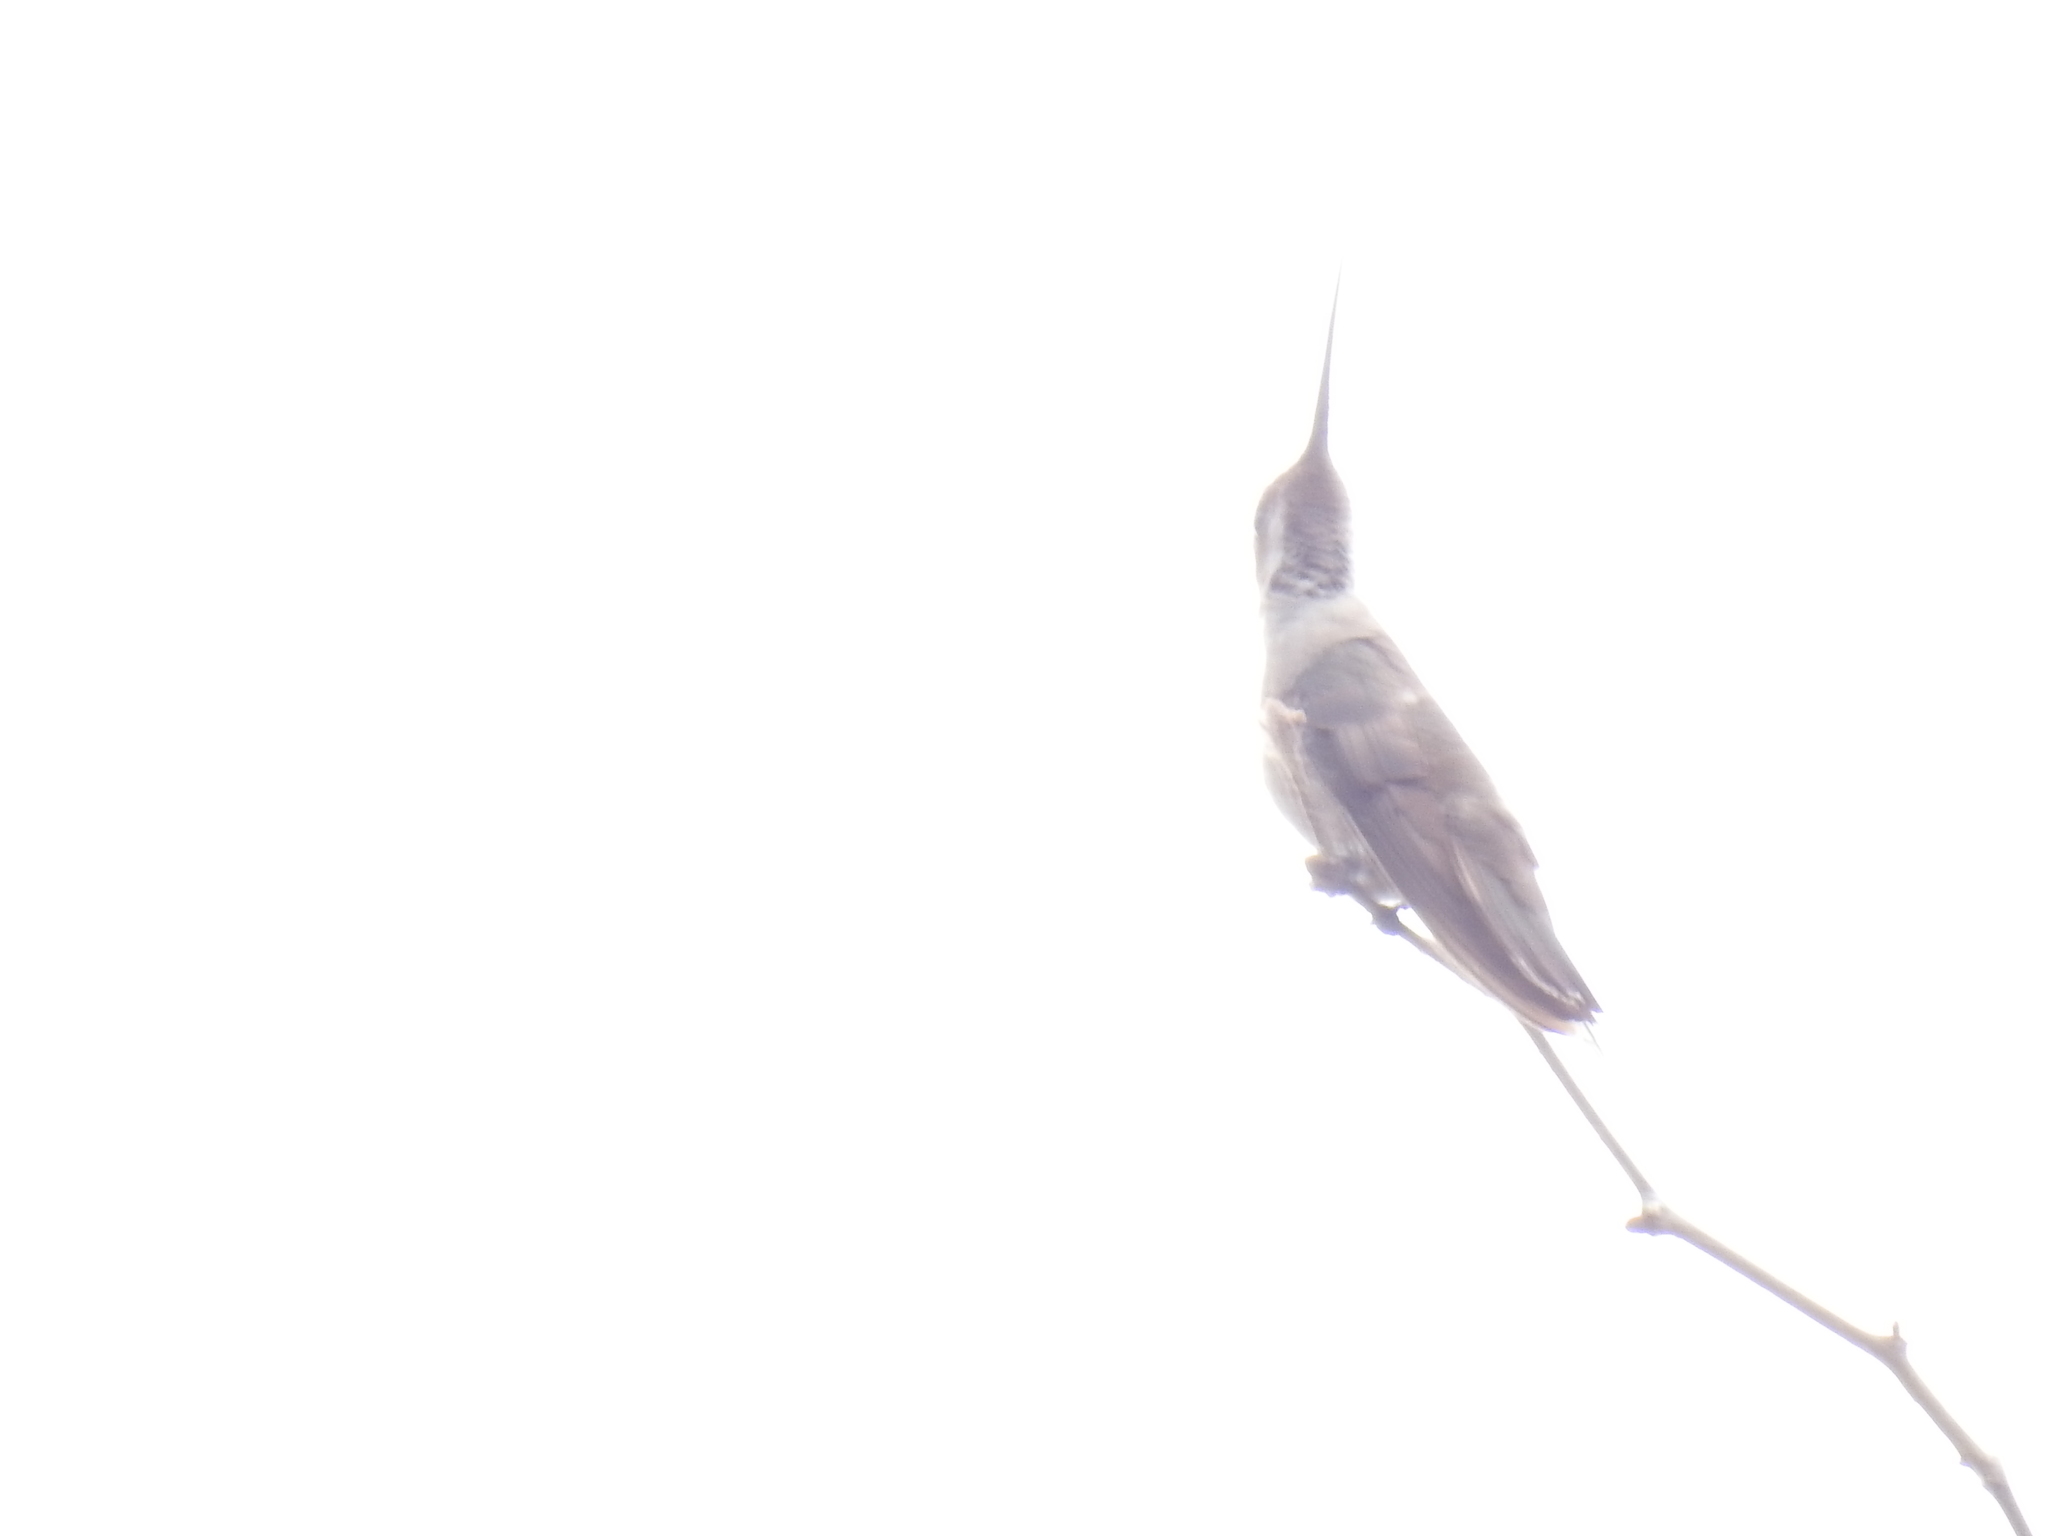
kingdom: Animalia
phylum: Chordata
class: Aves
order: Apodiformes
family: Trochilidae
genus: Heliomaster
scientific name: Heliomaster constantii
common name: Plain-capped starthroat
